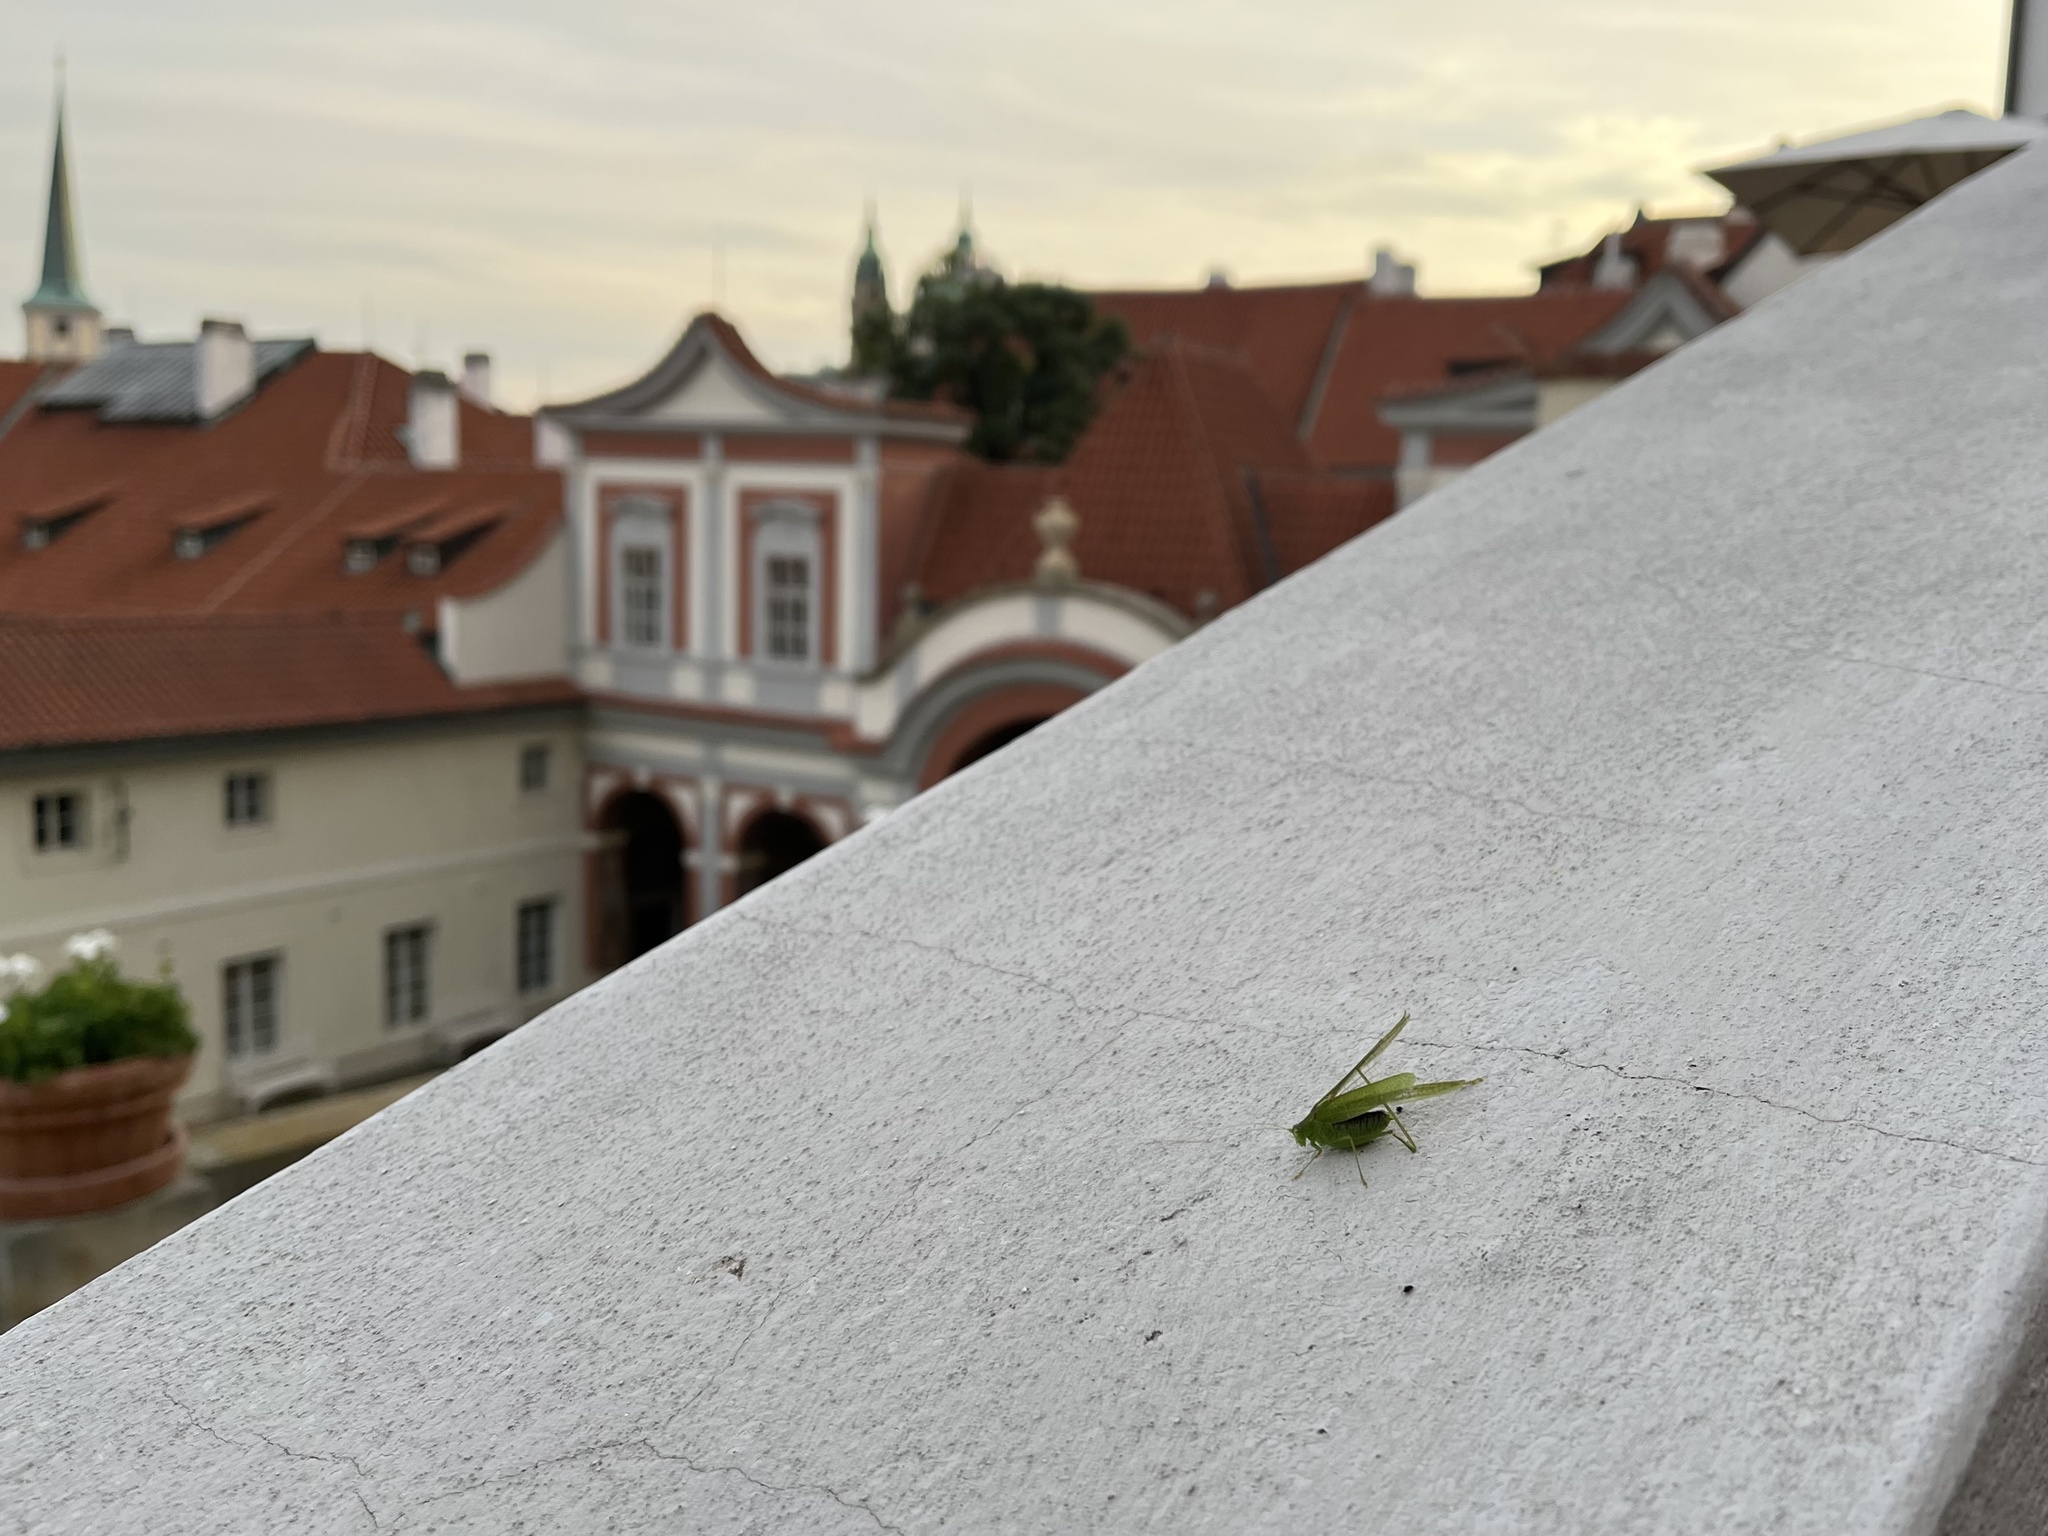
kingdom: Animalia
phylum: Arthropoda
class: Insecta
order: Orthoptera
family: Tettigoniidae
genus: Phaneroptera
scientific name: Phaneroptera nana
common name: Southern sickle bush-cricket
